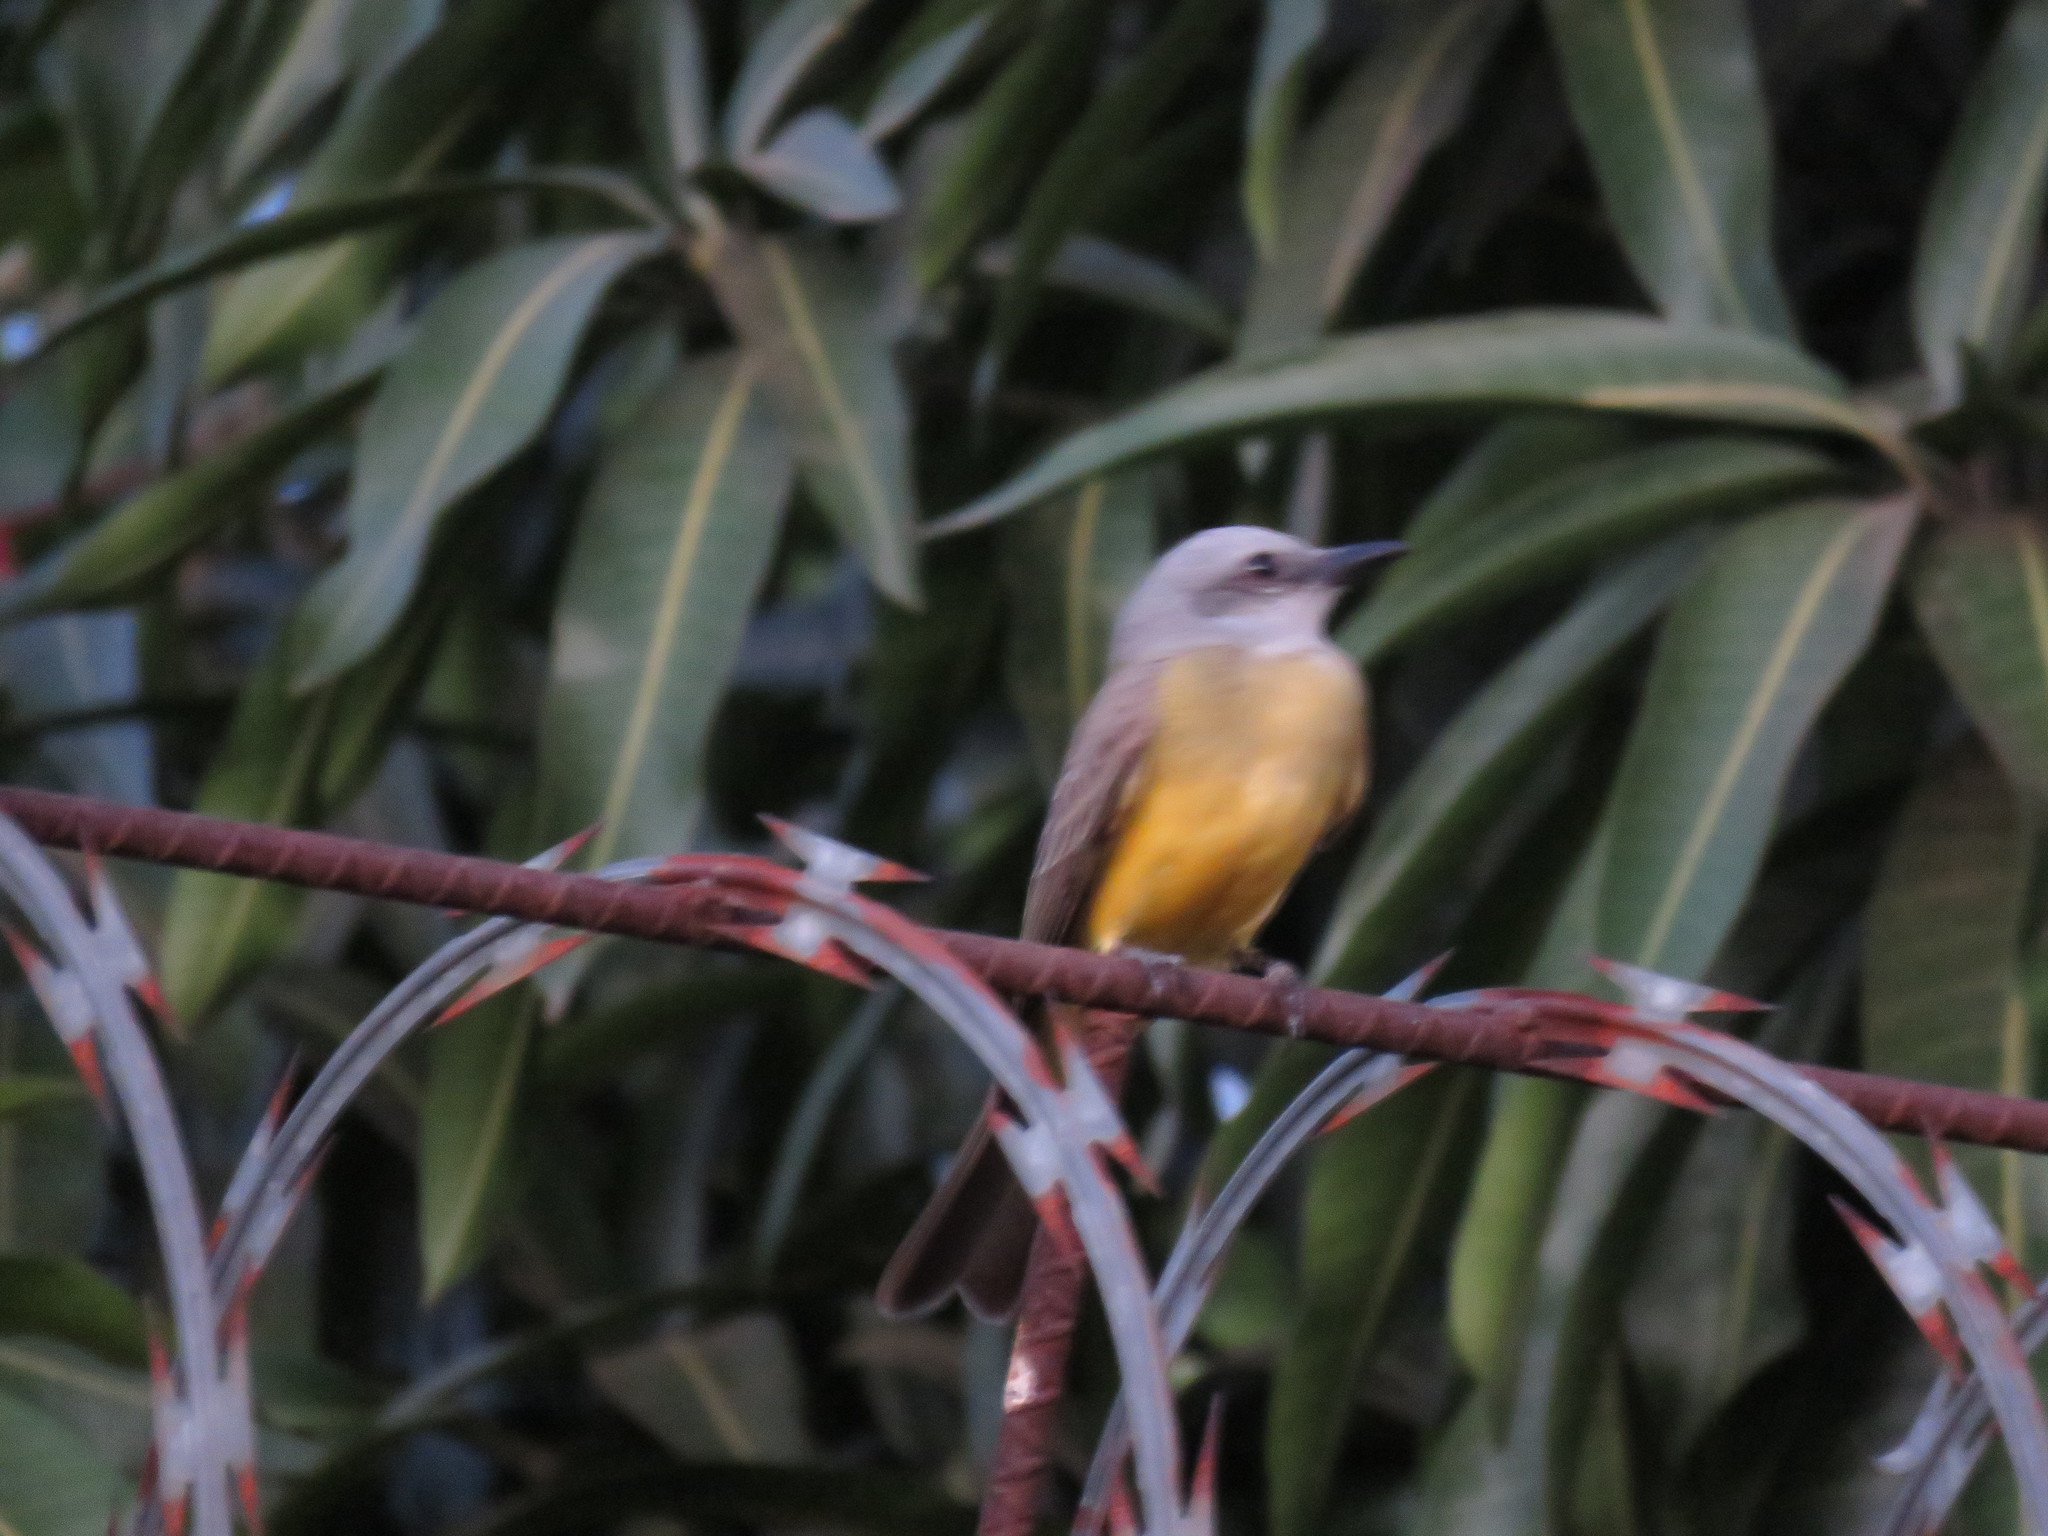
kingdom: Animalia
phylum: Chordata
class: Aves
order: Passeriformes
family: Tyrannidae
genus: Tyrannus
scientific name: Tyrannus melancholicus
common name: Tropical kingbird
